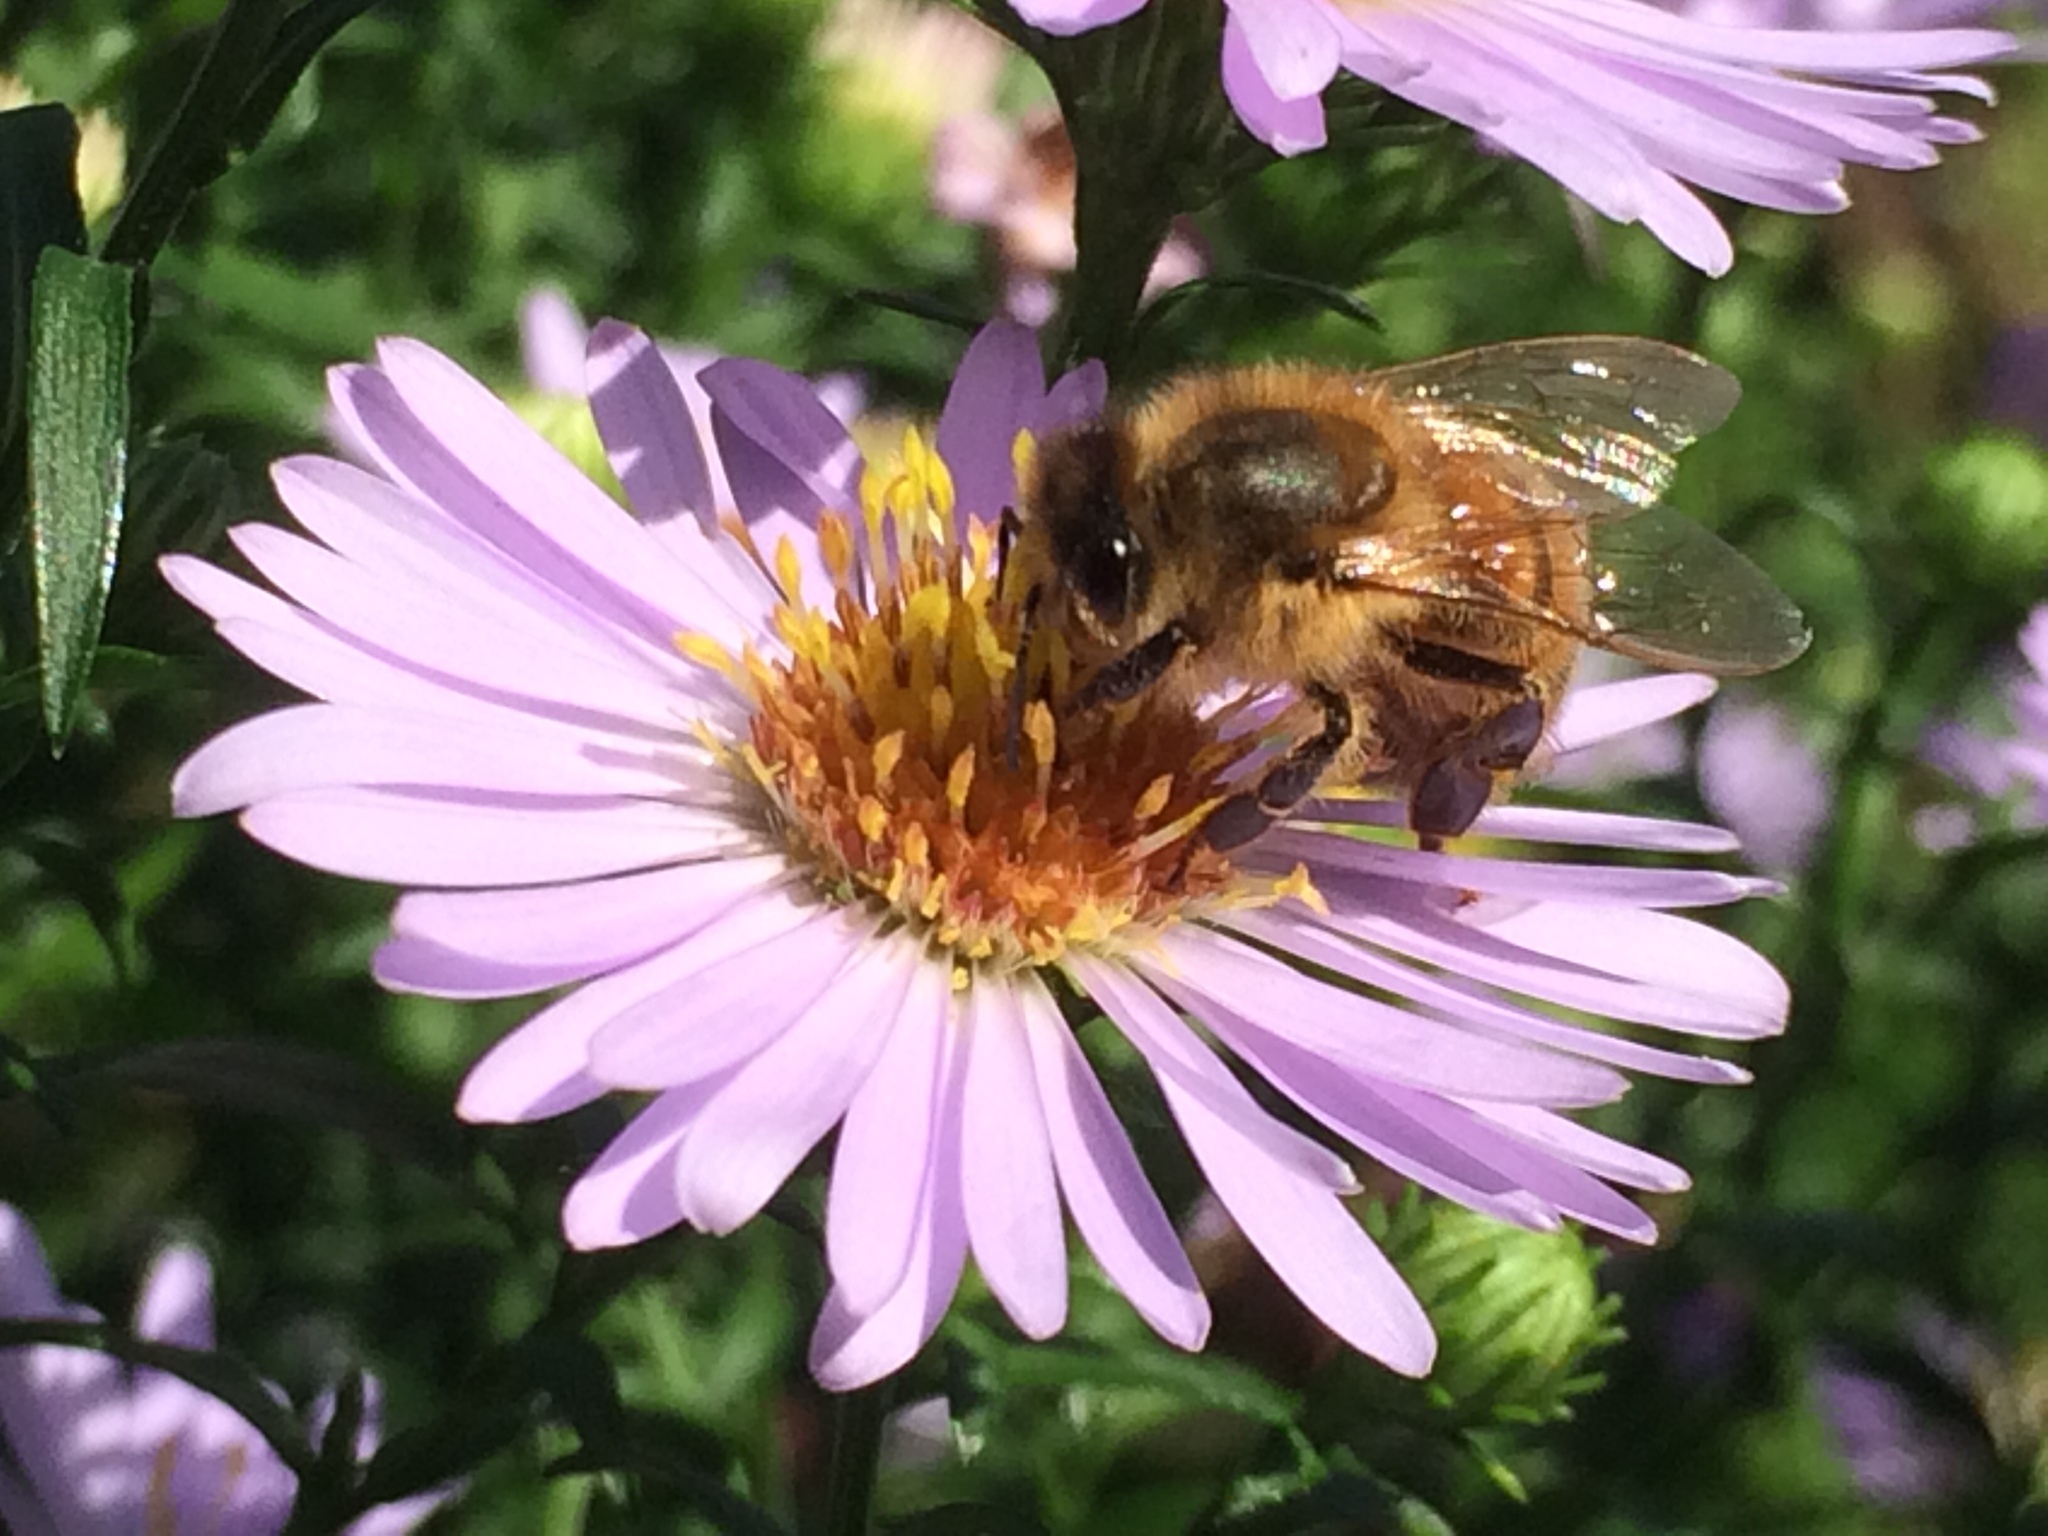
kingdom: Animalia
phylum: Arthropoda
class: Insecta
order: Hymenoptera
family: Apidae
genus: Apis
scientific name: Apis mellifera
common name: Honey bee
